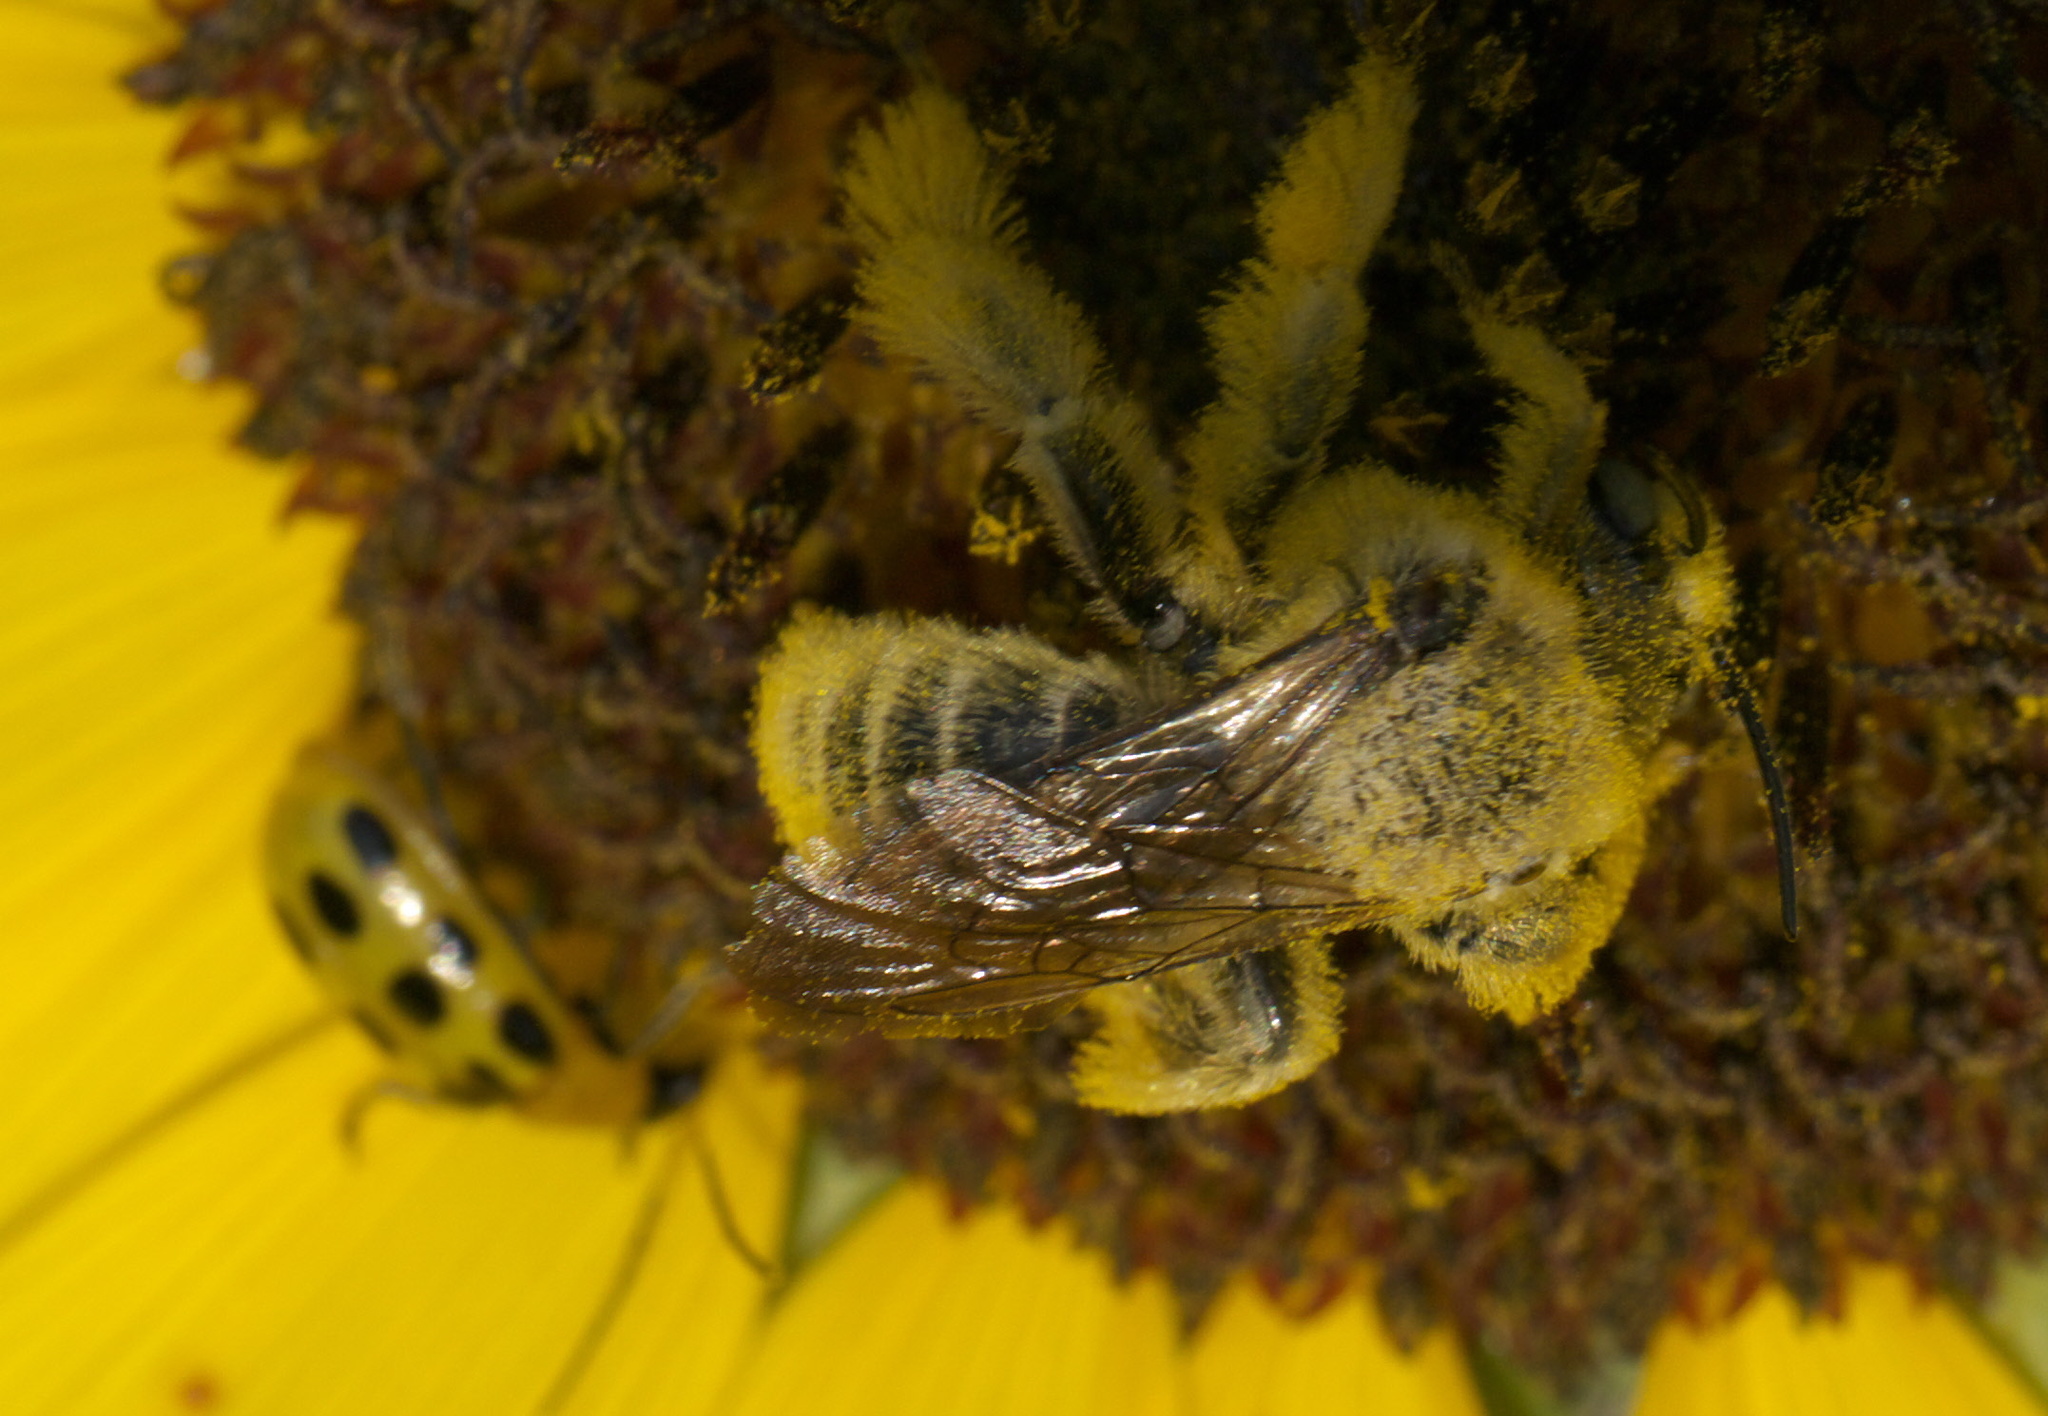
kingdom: Animalia
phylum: Arthropoda
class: Insecta
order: Hymenoptera
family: Apidae
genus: Diadasia
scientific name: Diadasia enavata
